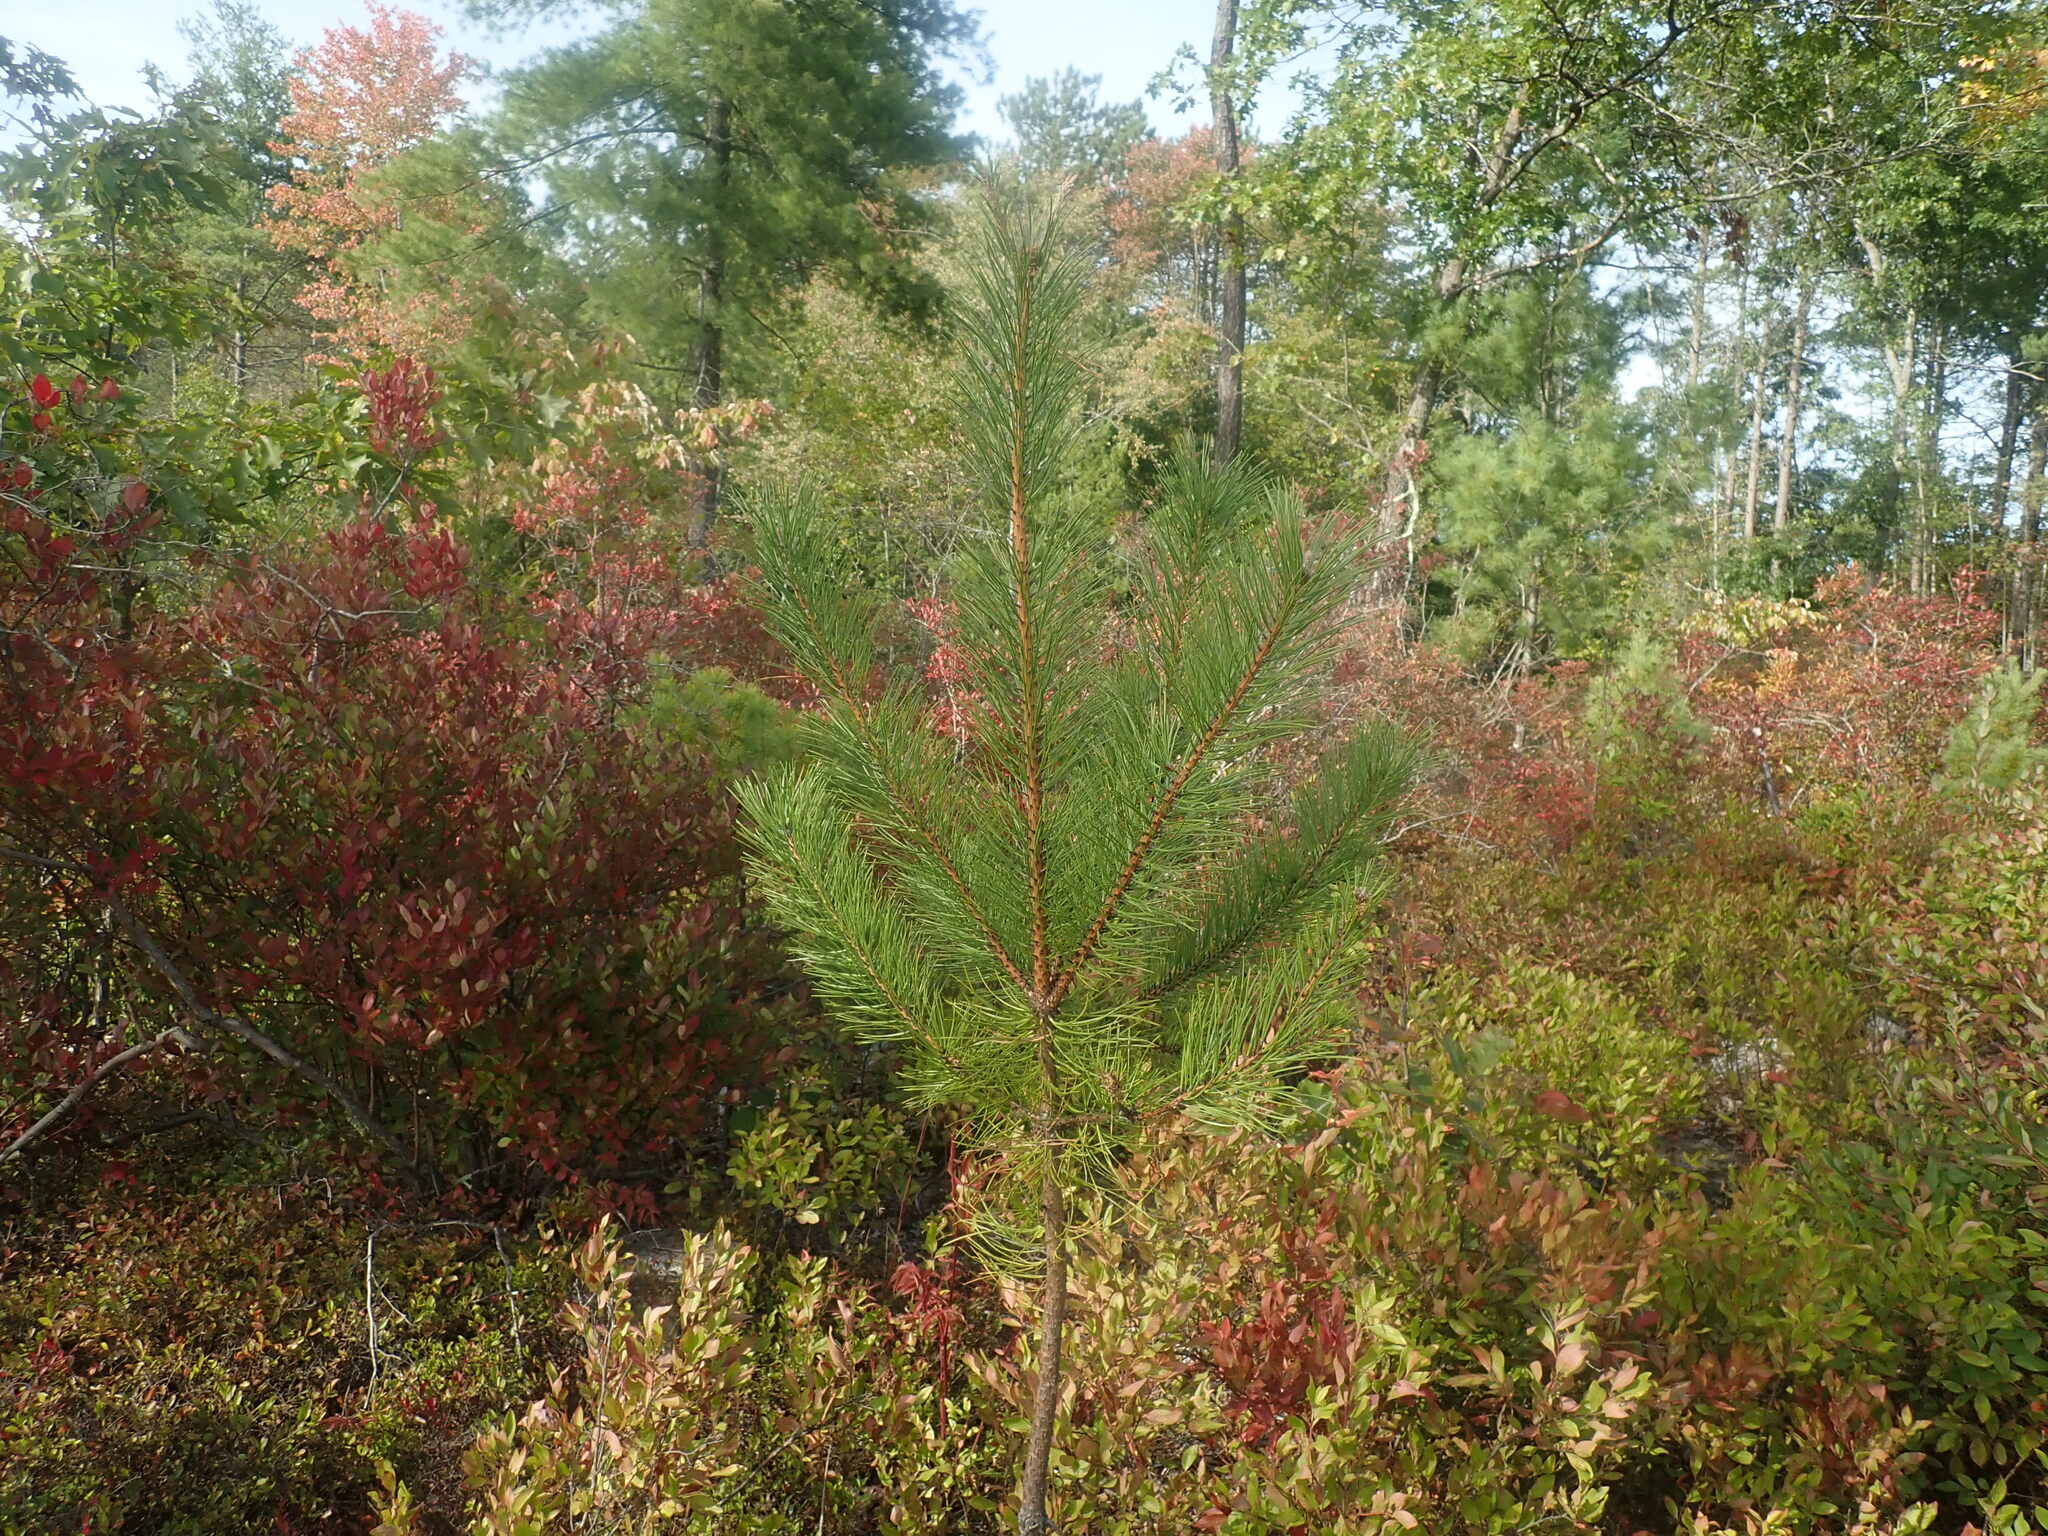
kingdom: Plantae
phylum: Tracheophyta
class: Pinopsida
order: Pinales
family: Pinaceae
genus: Pinus
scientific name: Pinus rigida
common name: Pitch pine
